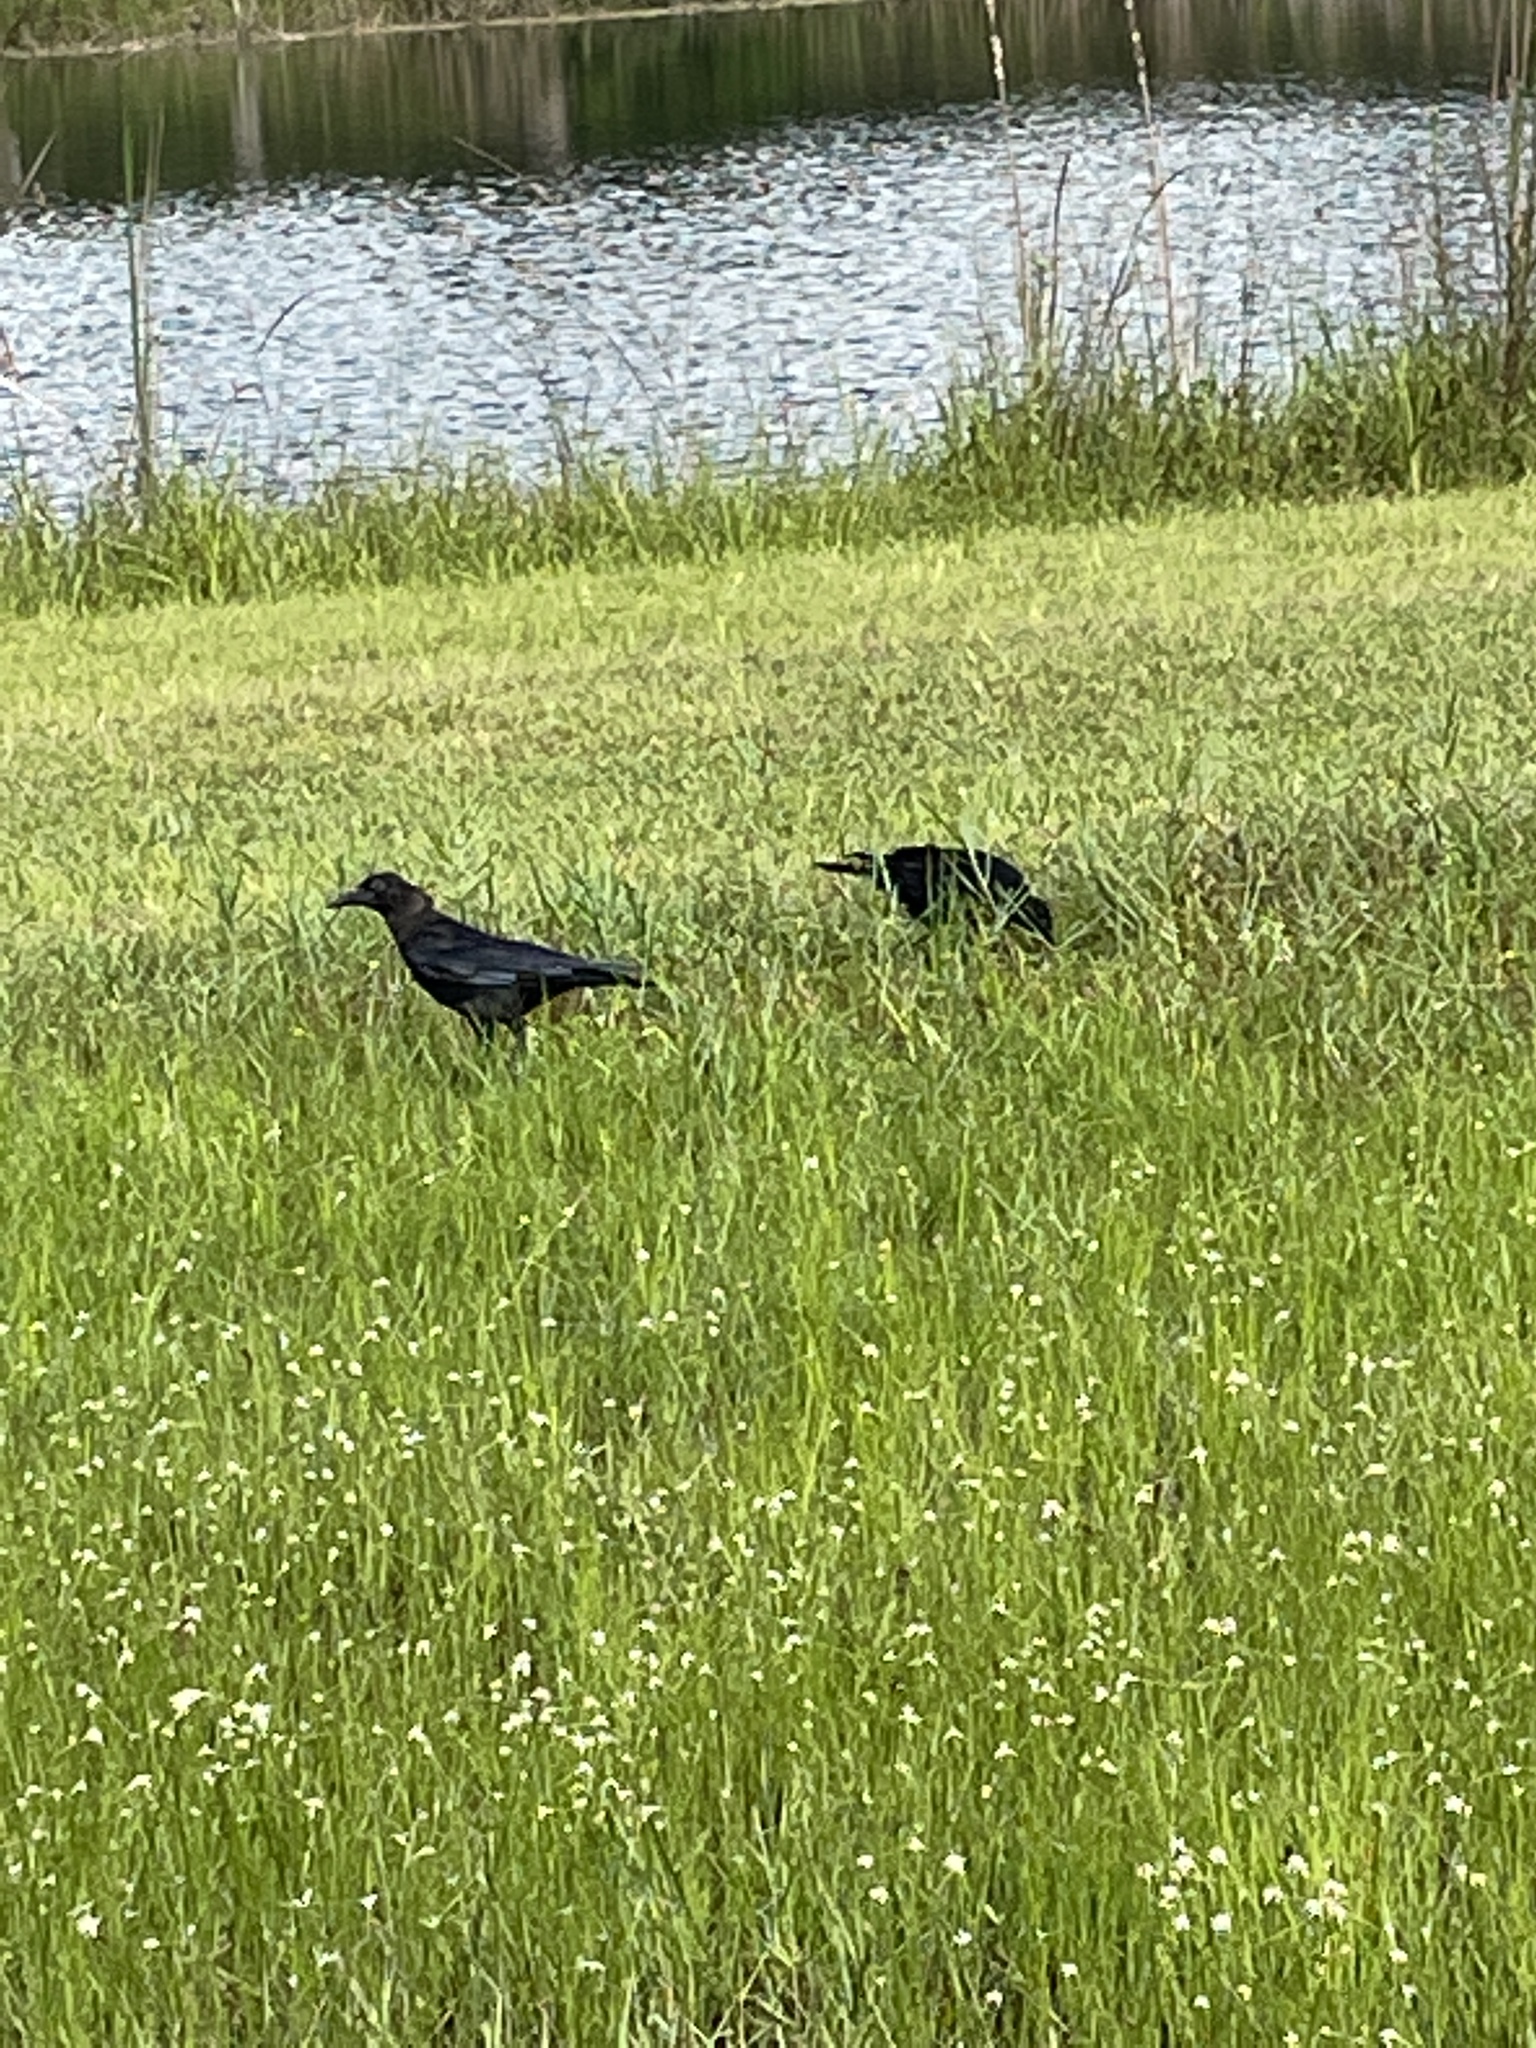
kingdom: Animalia
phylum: Chordata
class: Aves
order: Passeriformes
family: Corvidae
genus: Corvus
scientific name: Corvus brachyrhynchos
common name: American crow
